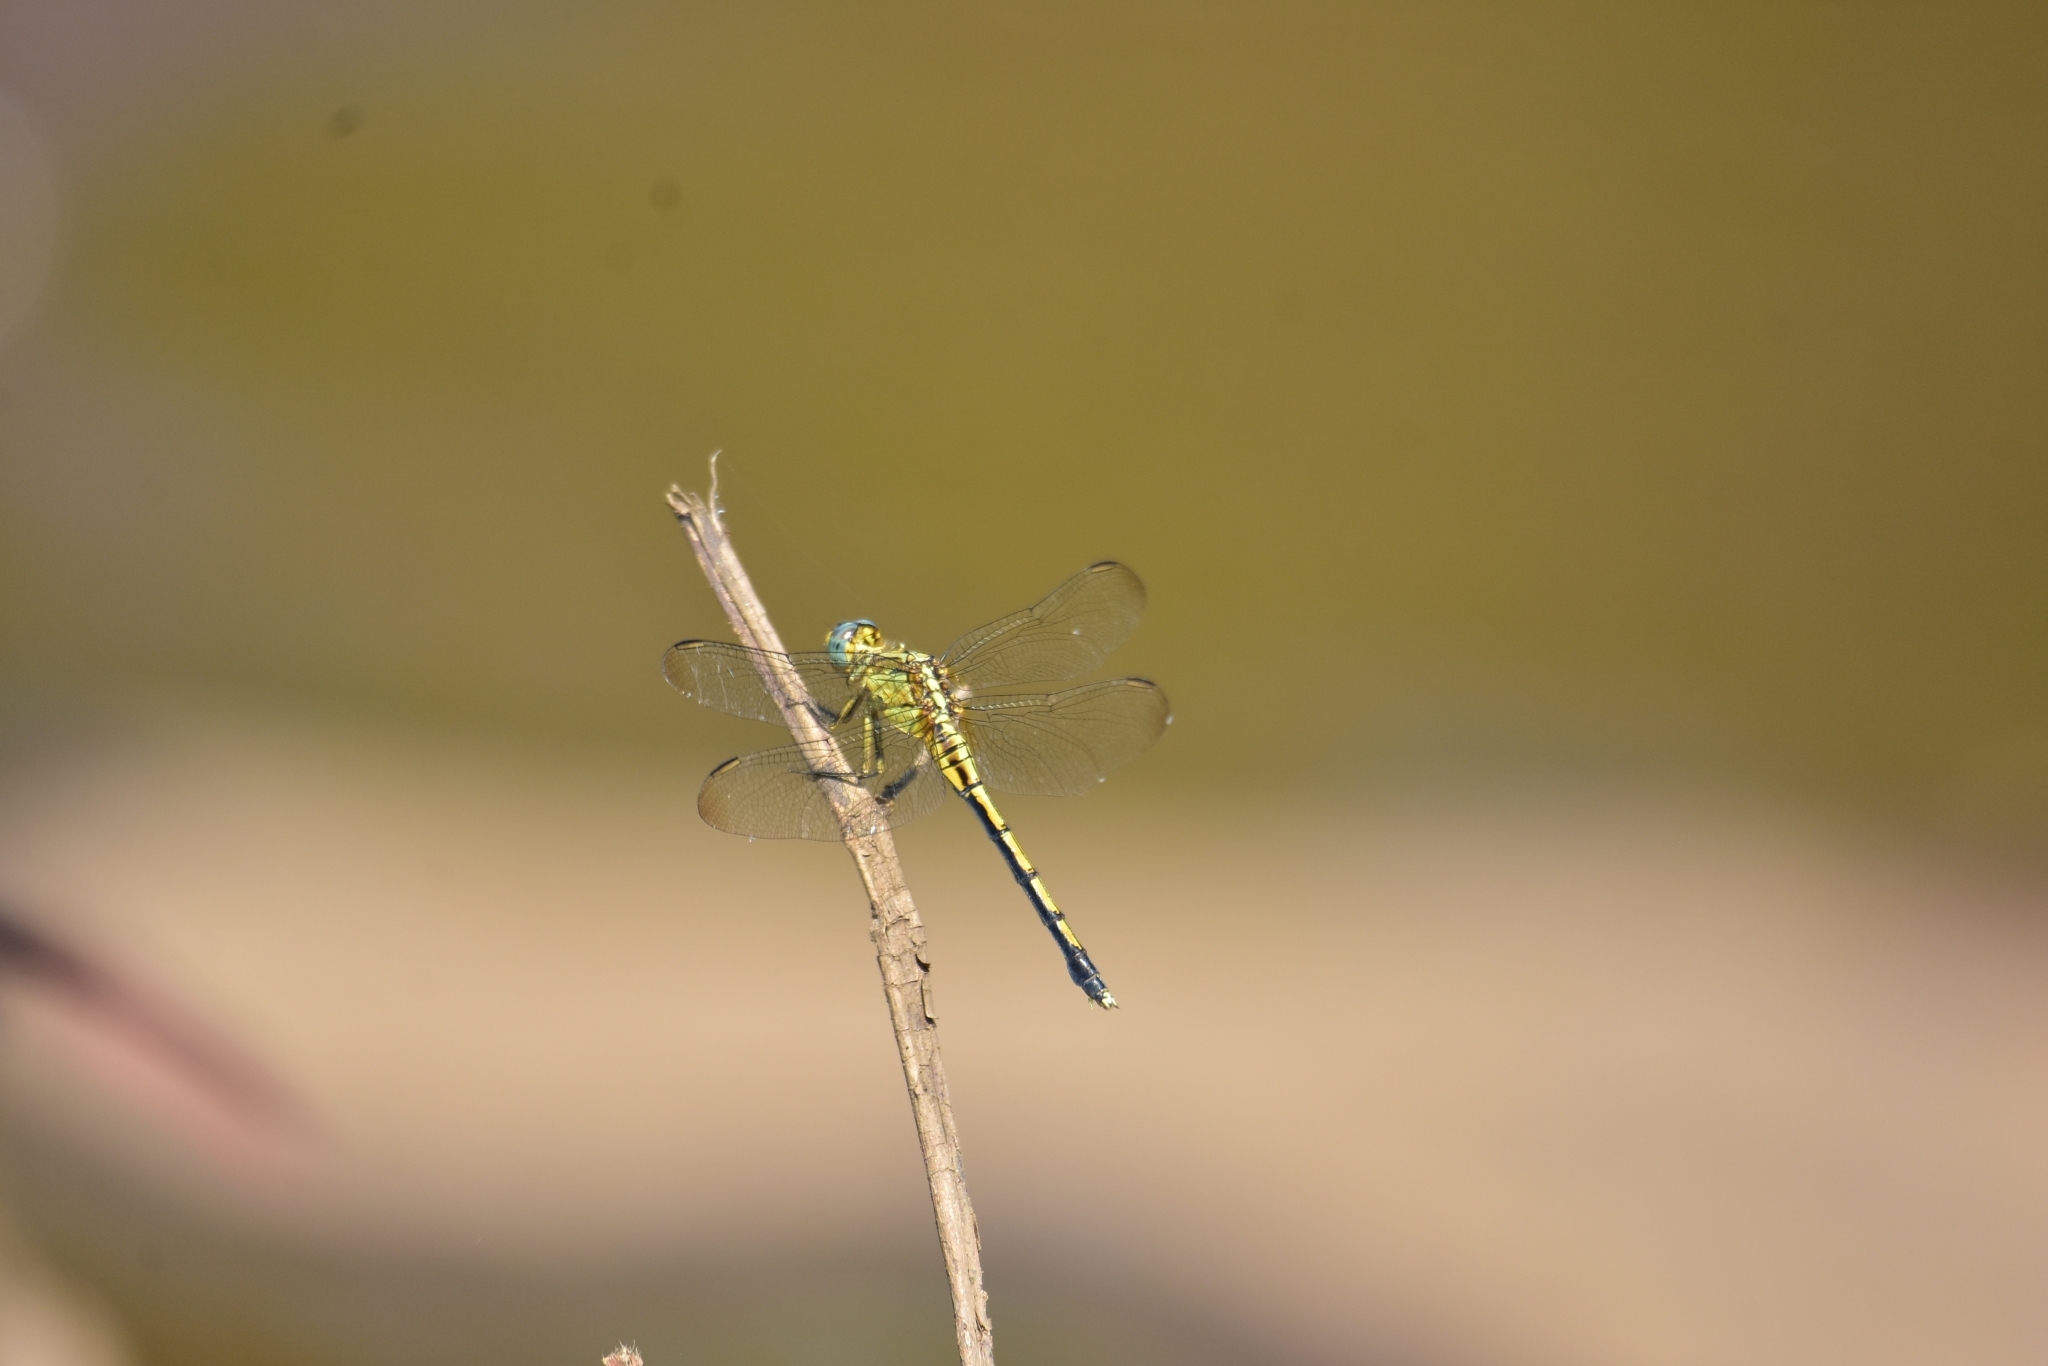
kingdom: Animalia
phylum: Arthropoda
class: Insecta
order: Odonata
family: Libellulidae
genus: Orthetrum
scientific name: Orthetrum luzonicum
